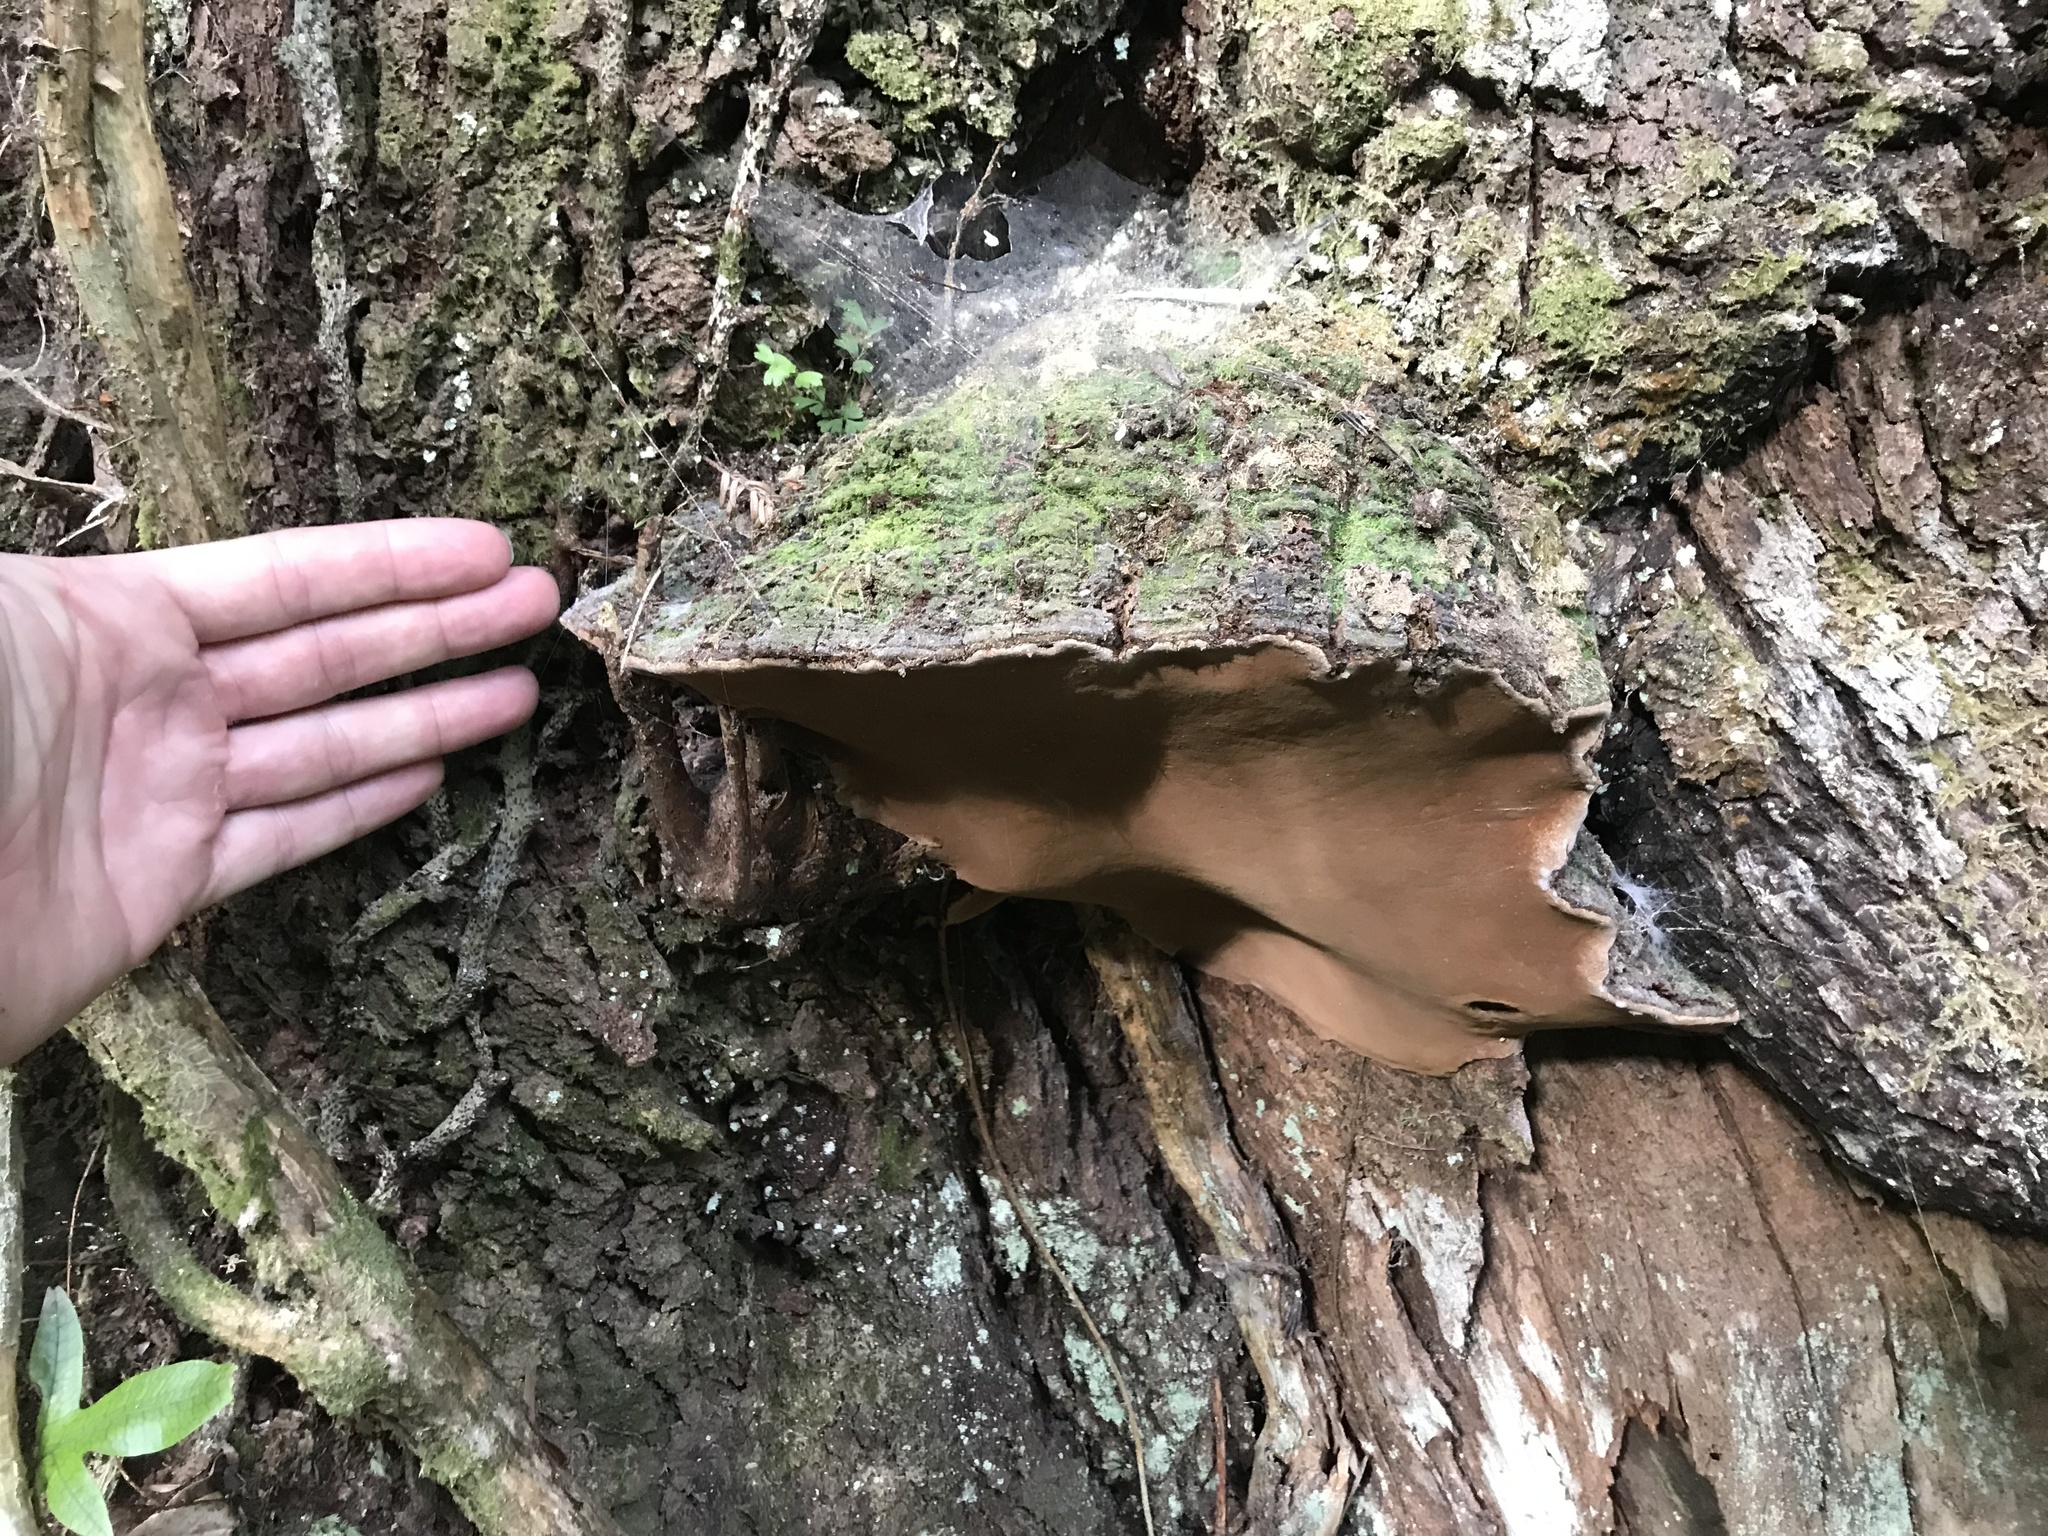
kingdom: Fungi
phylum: Basidiomycota
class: Agaricomycetes
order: Hymenochaetales
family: Hymenochaetaceae
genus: Fuscoporia
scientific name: Fuscoporia wahlbergii
